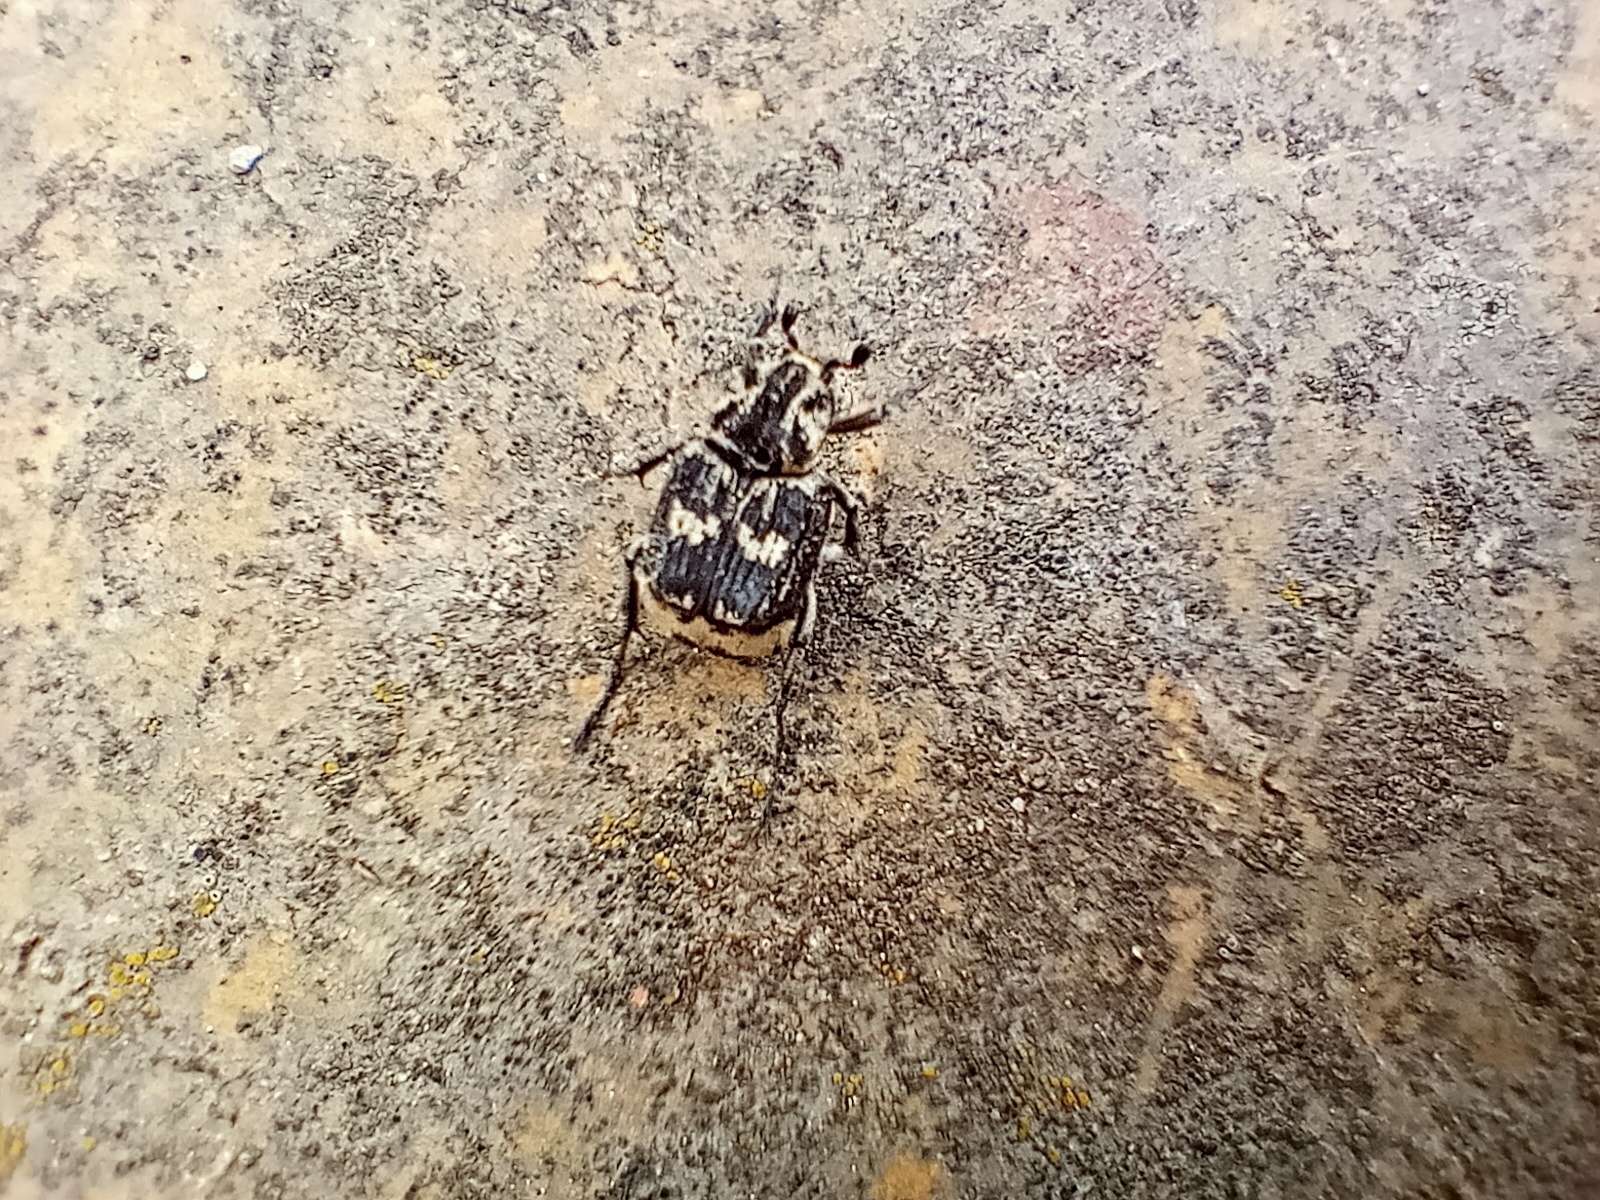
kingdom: Animalia
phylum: Arthropoda
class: Insecta
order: Coleoptera
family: Scarabaeidae
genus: Valgus
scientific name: Valgus hemipterus
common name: Bug flower chafer
